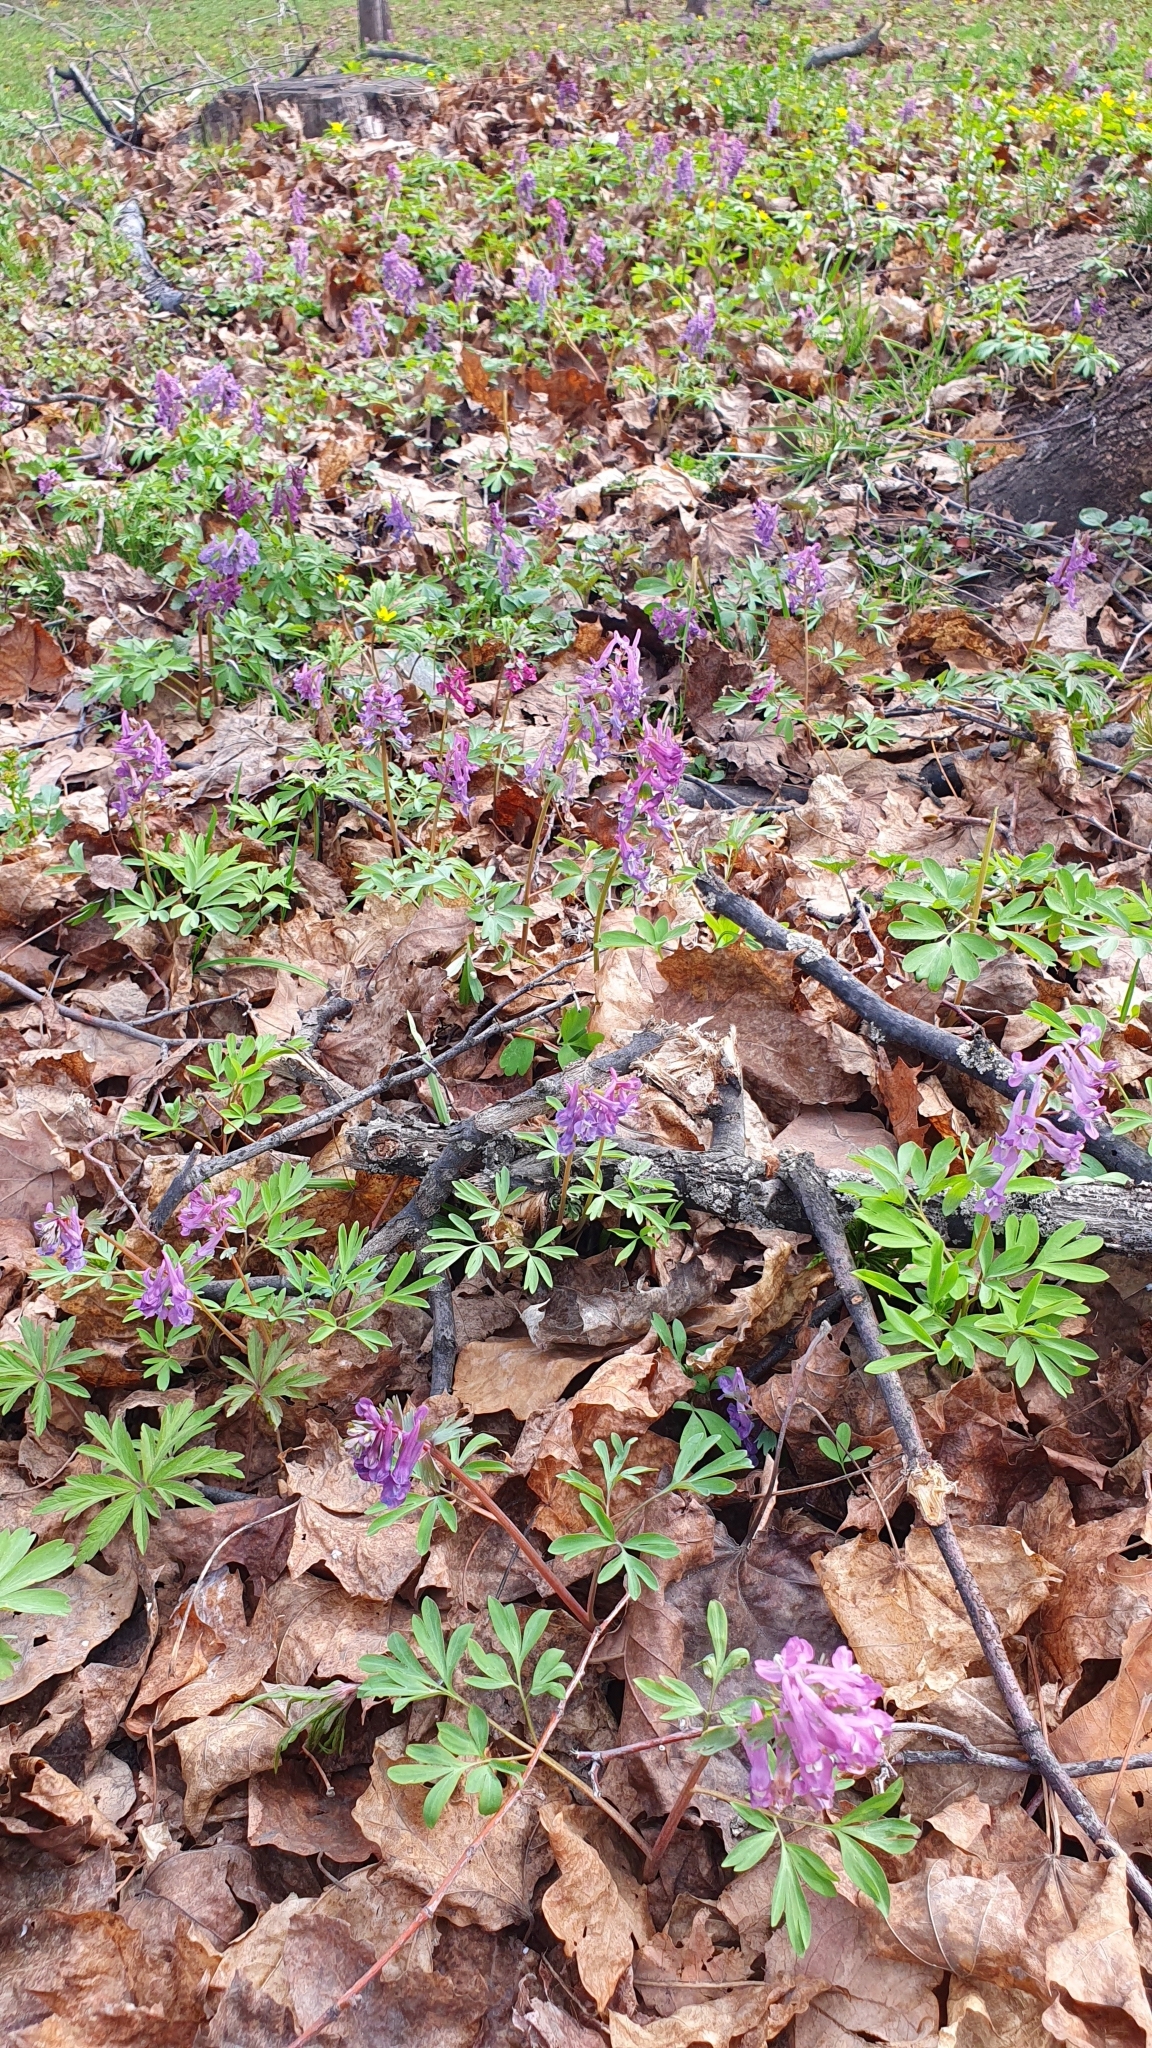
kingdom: Plantae
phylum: Tracheophyta
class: Magnoliopsida
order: Ranunculales
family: Papaveraceae
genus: Corydalis
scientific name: Corydalis solida
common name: Bird-in-a-bush
